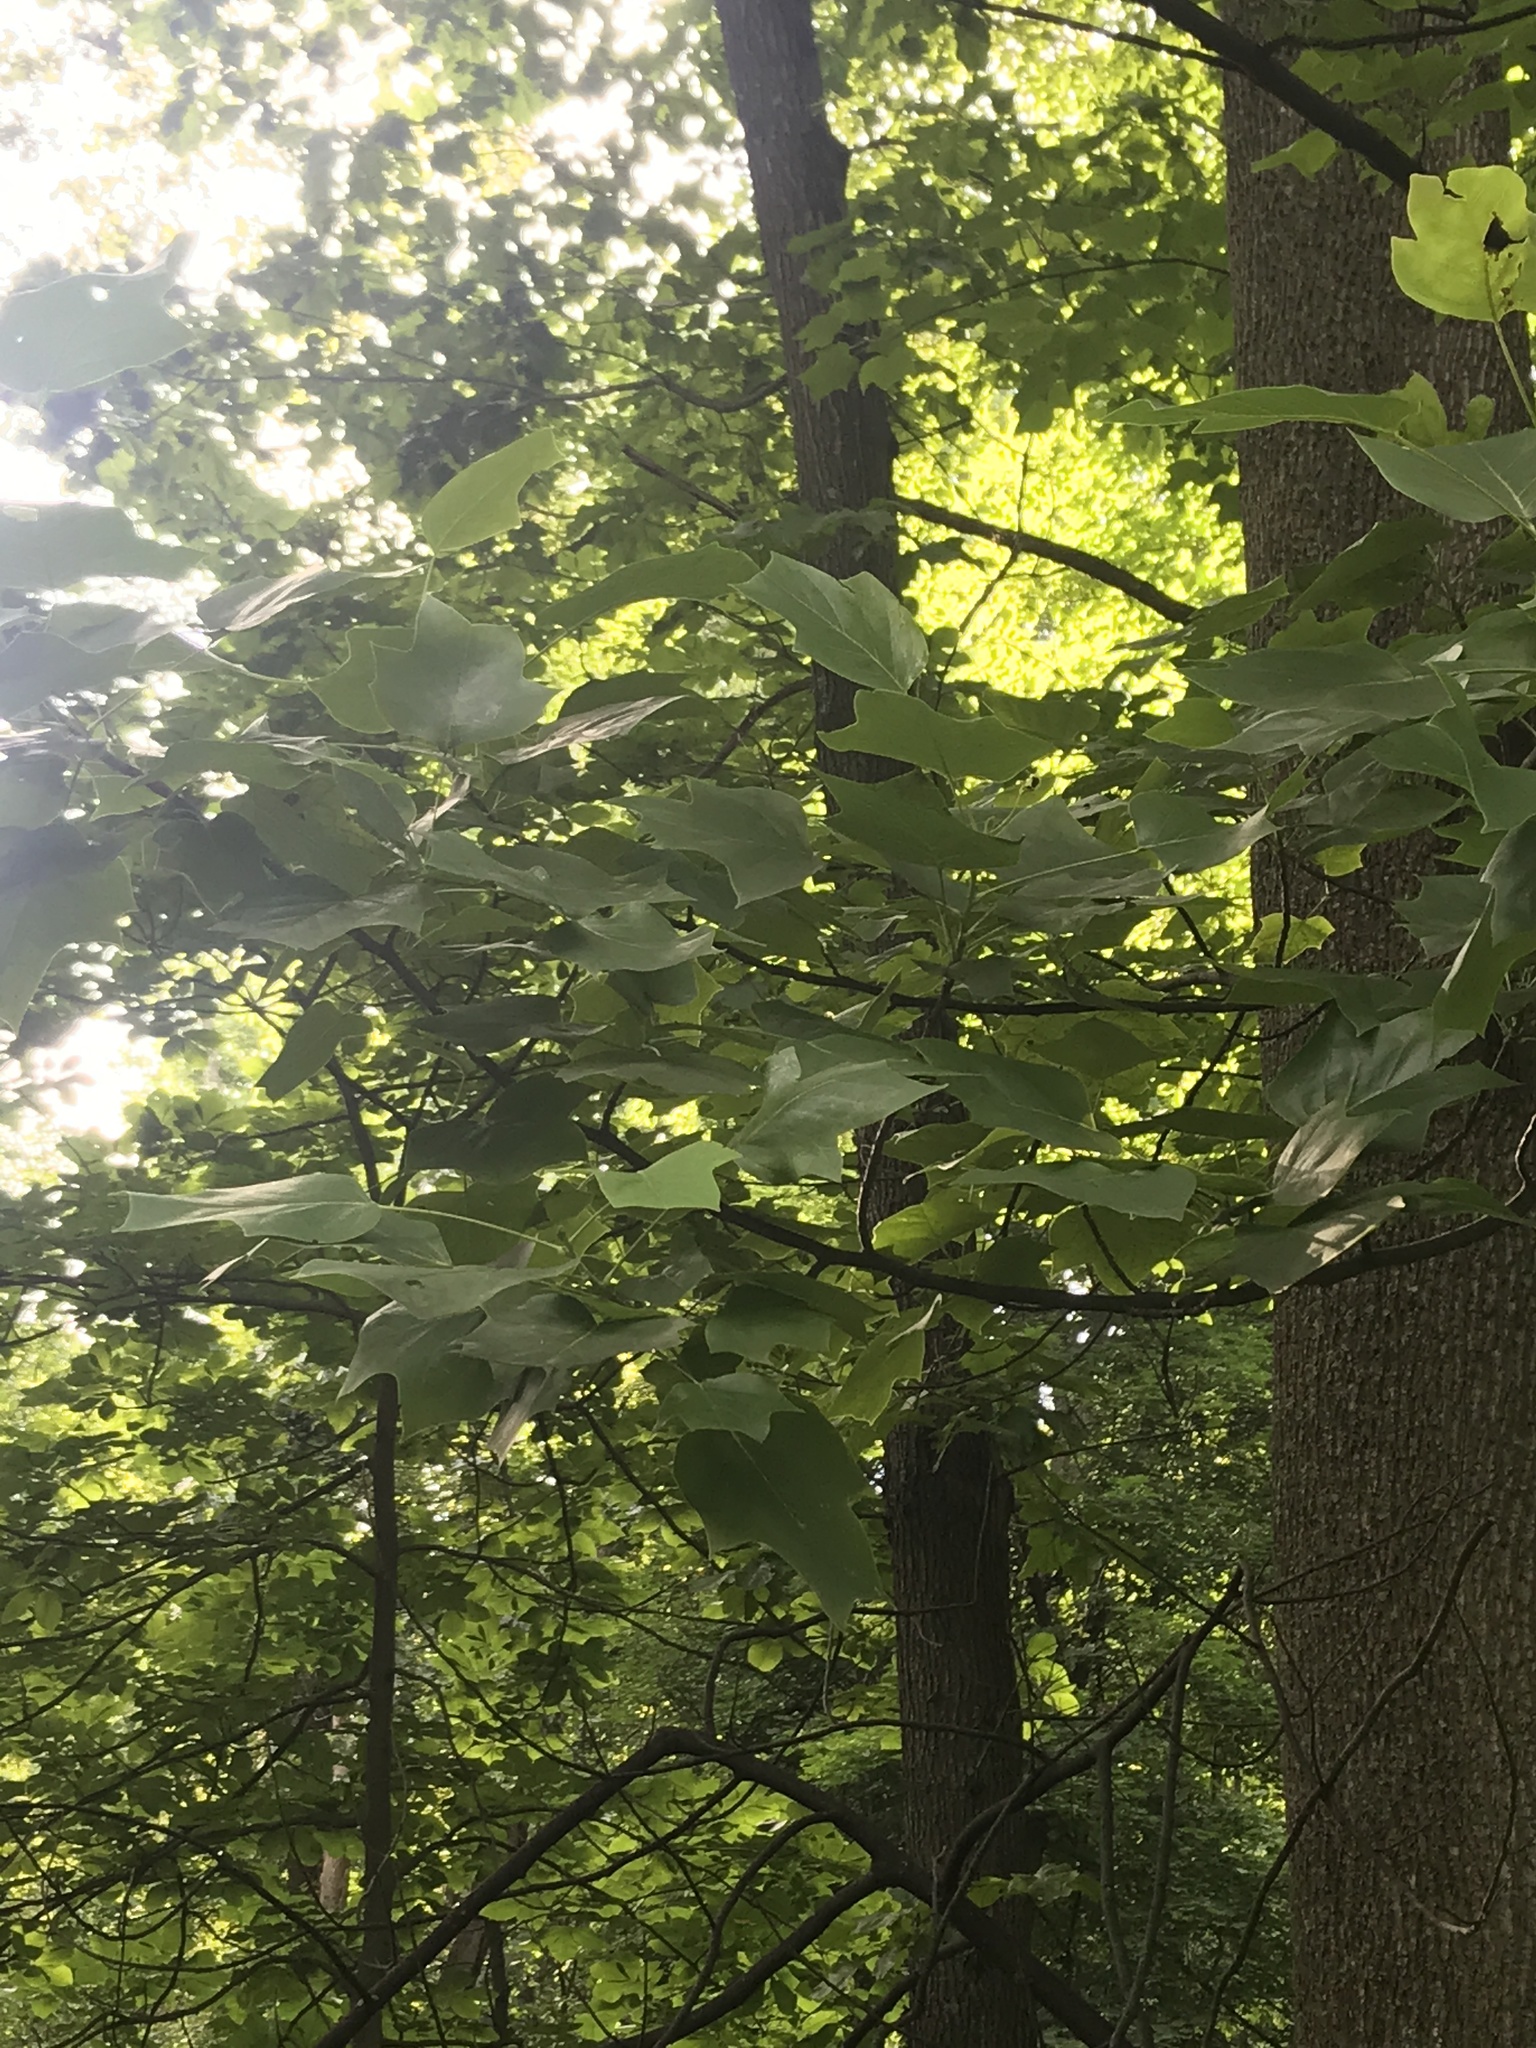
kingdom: Plantae
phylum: Tracheophyta
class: Magnoliopsida
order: Magnoliales
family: Magnoliaceae
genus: Liriodendron
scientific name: Liriodendron tulipifera
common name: Tulip tree
